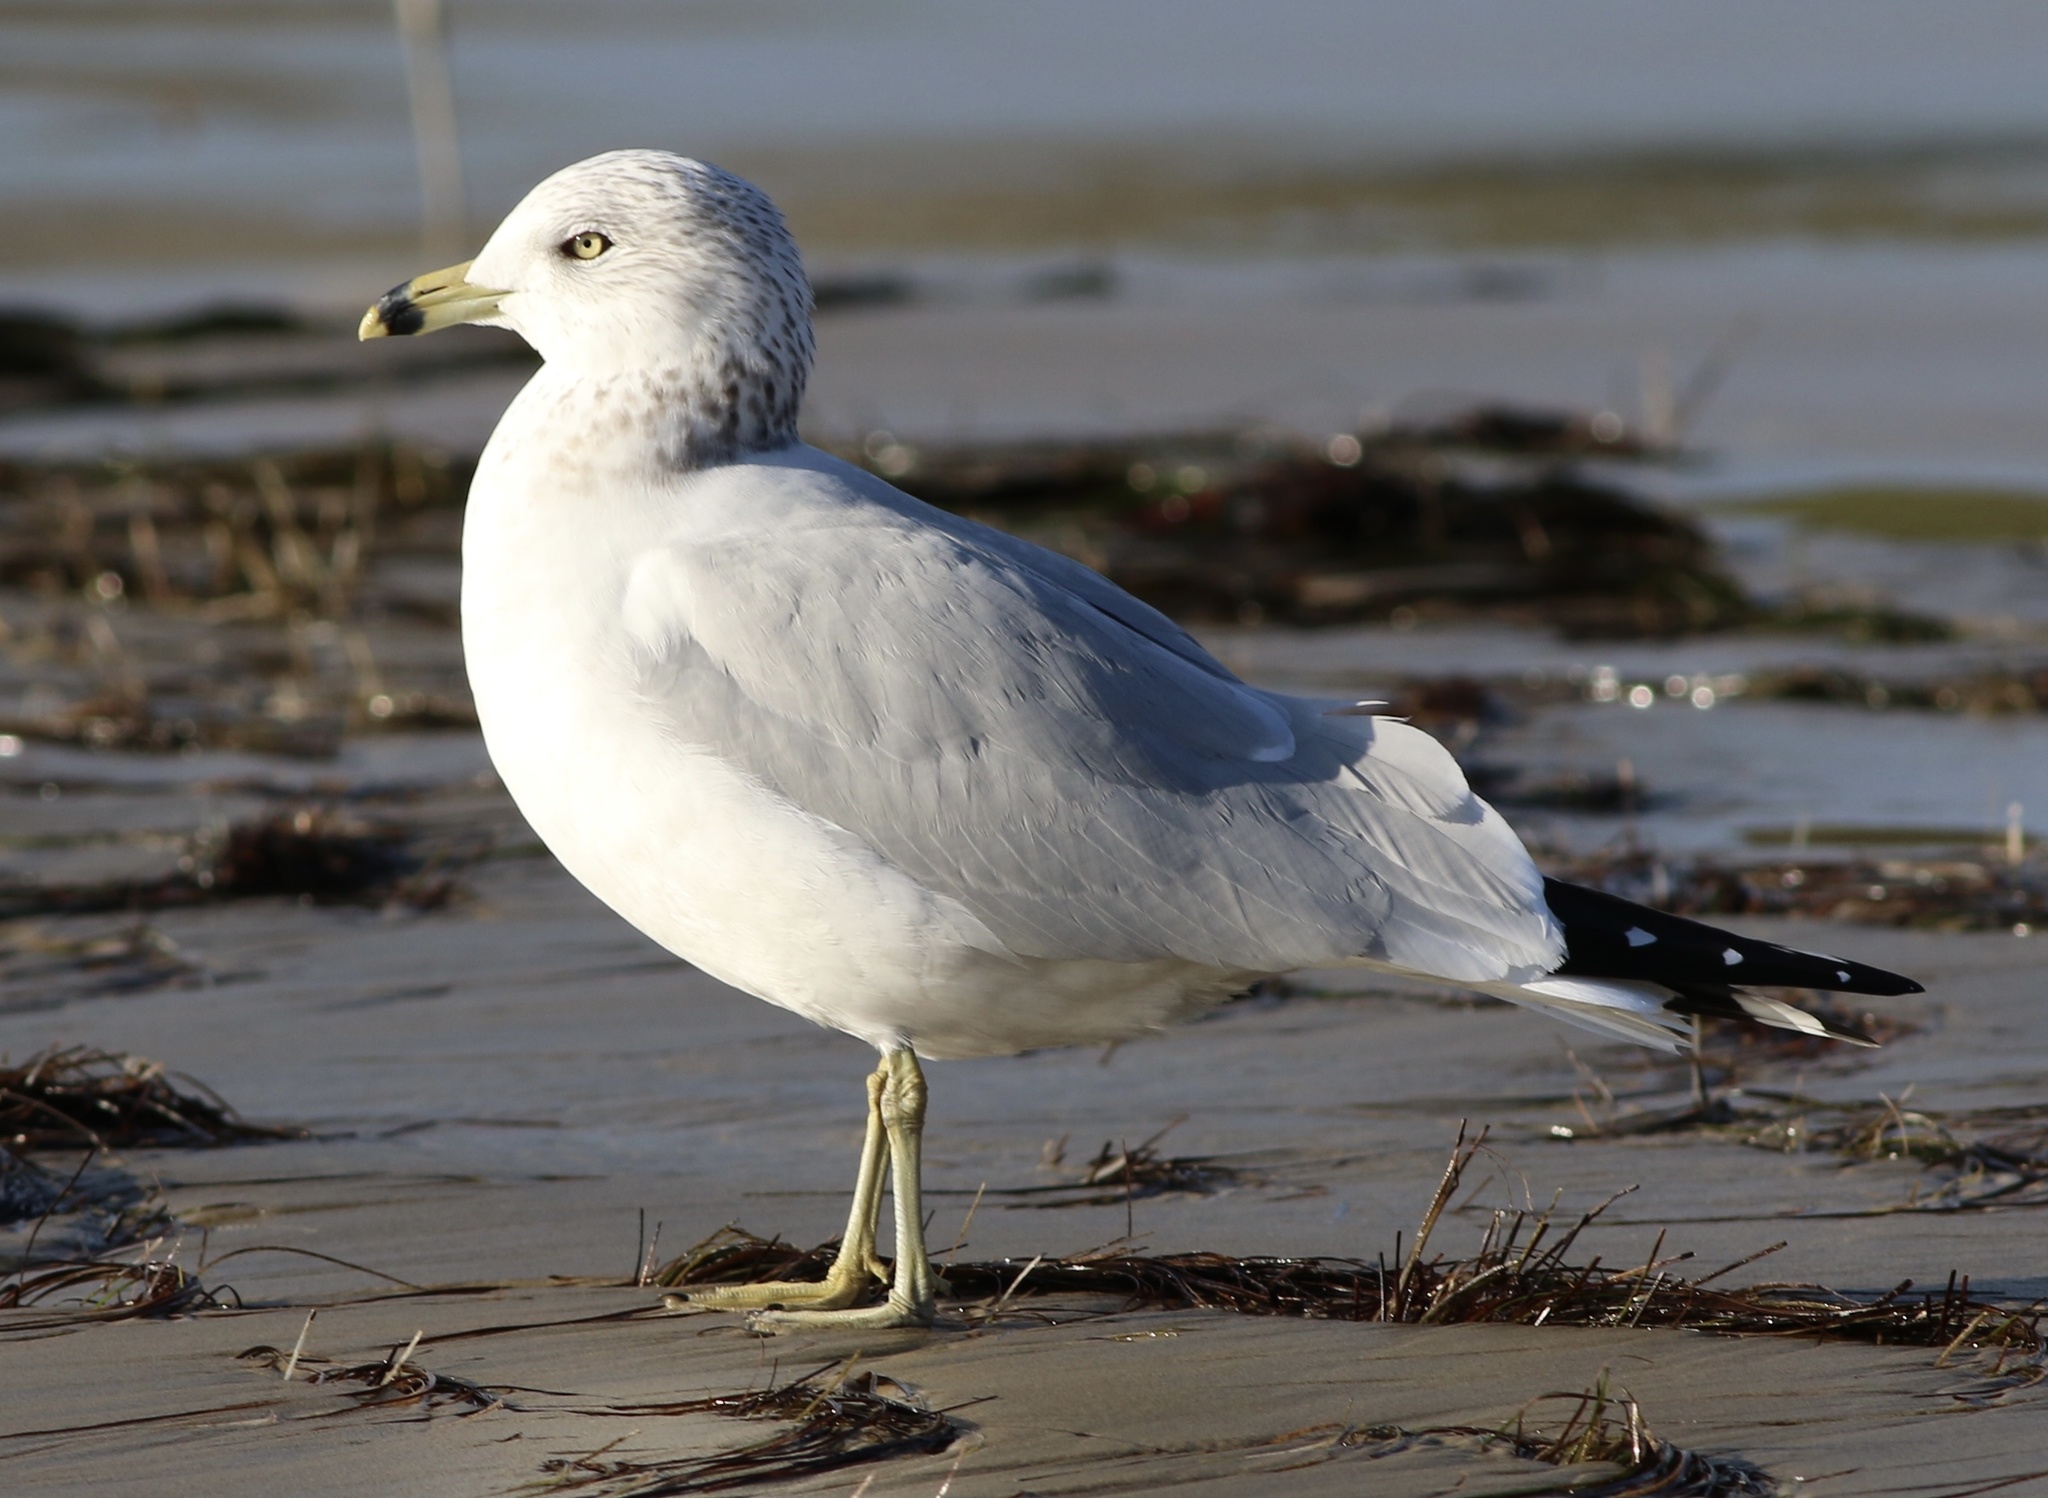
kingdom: Animalia
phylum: Chordata
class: Aves
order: Charadriiformes
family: Laridae
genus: Larus
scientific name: Larus delawarensis
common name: Ring-billed gull
